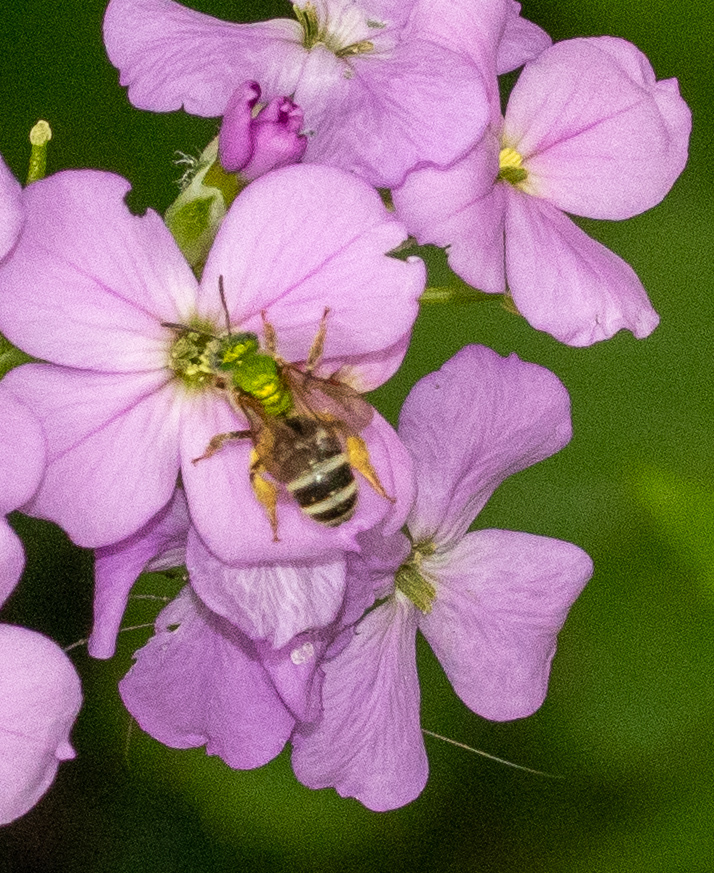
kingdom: Animalia
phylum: Arthropoda
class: Insecta
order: Hymenoptera
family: Halictidae
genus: Agapostemon
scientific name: Agapostemon virescens
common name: Bicolored striped sweat bee
